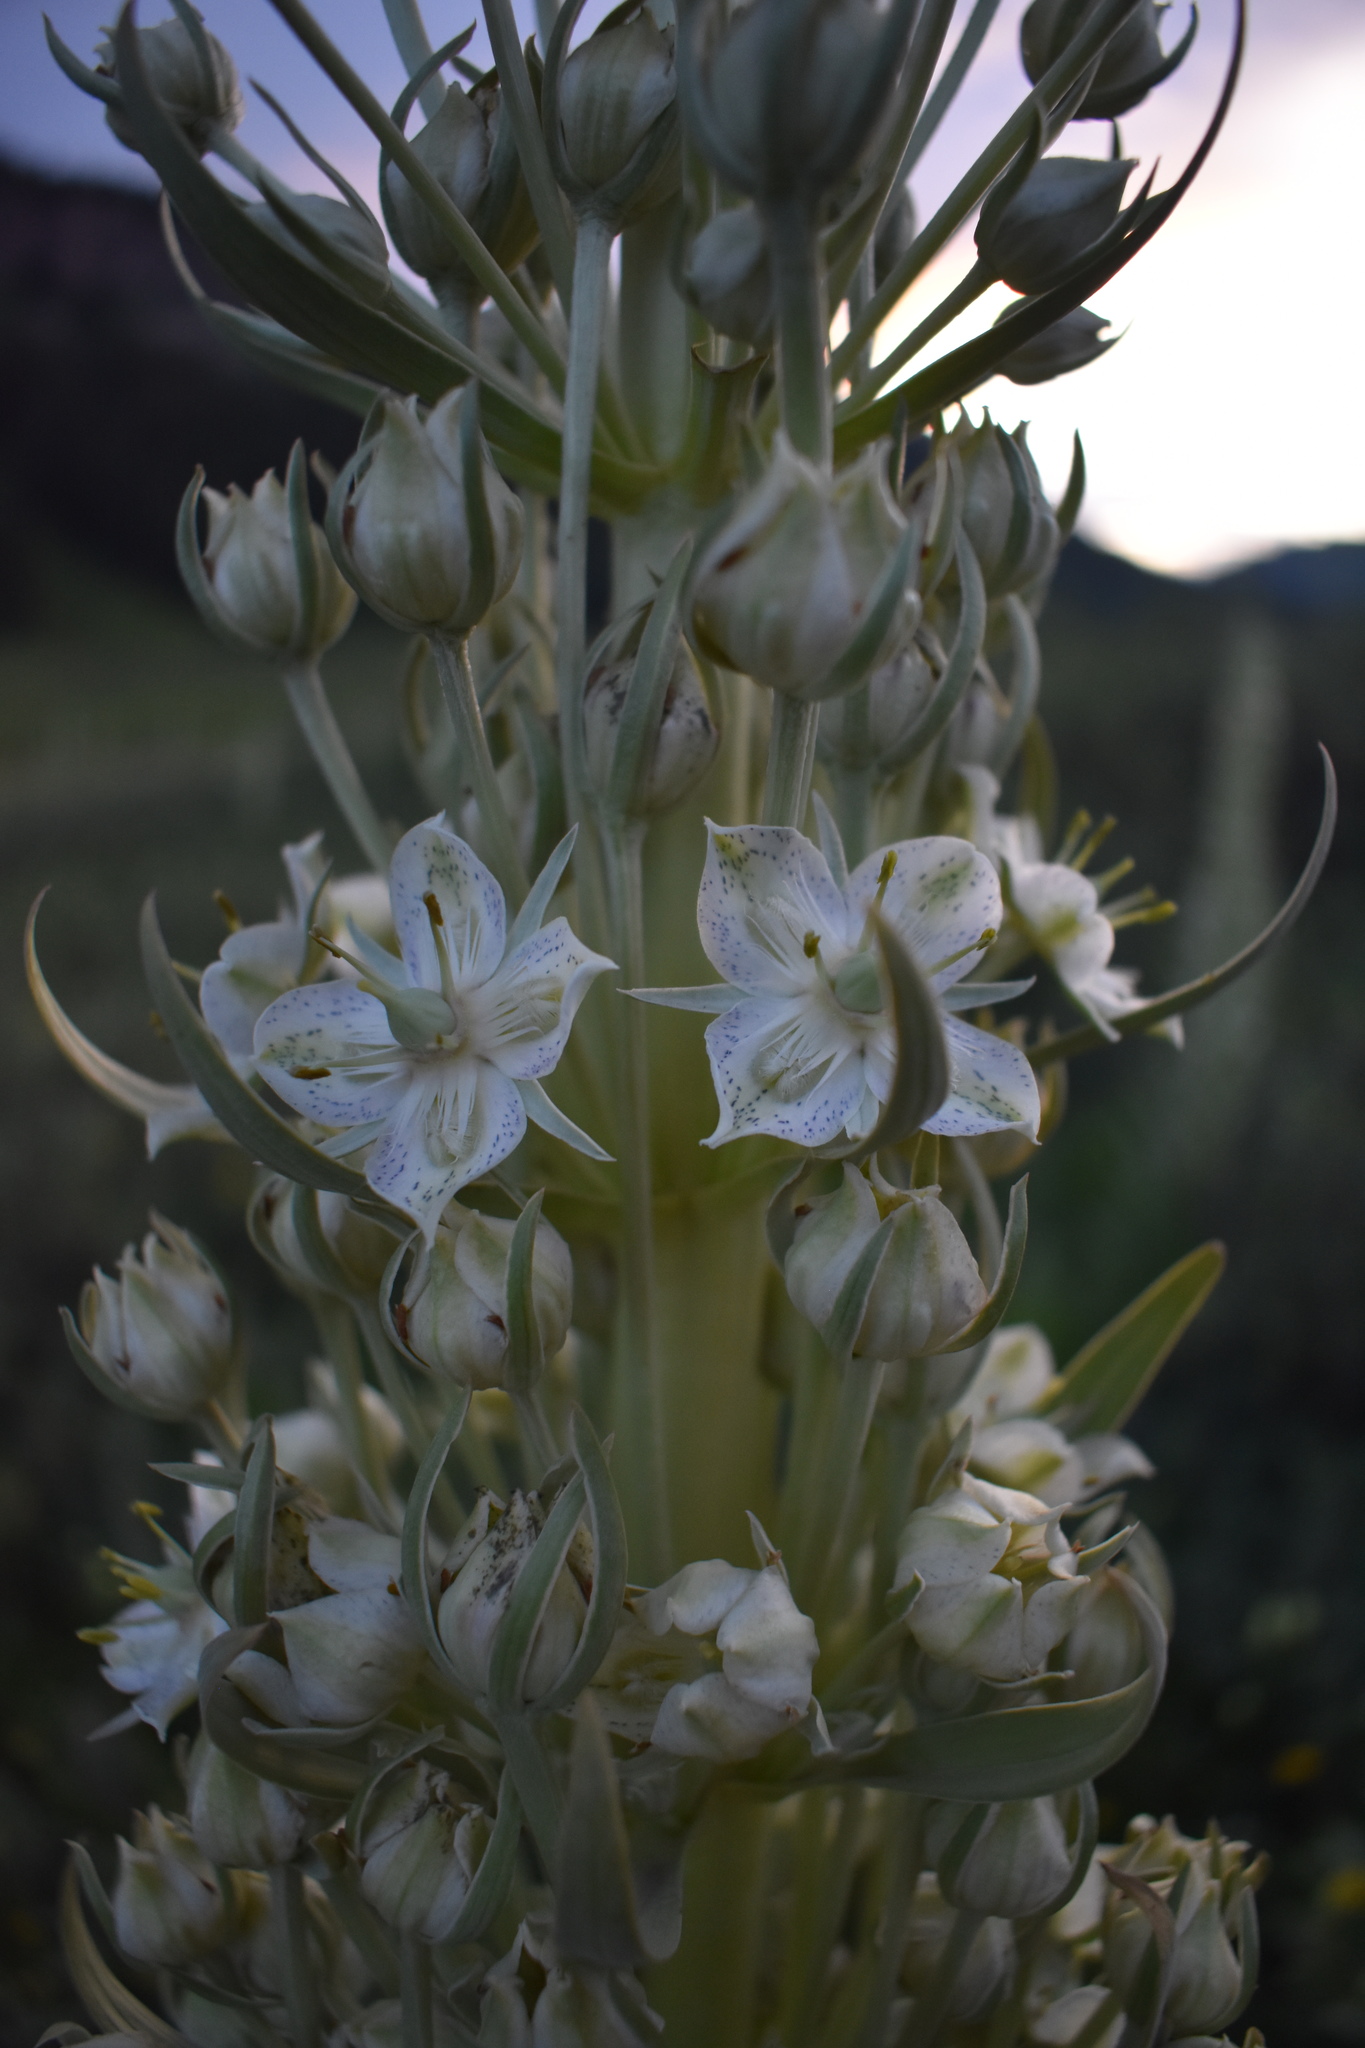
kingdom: Plantae
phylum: Tracheophyta
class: Magnoliopsida
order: Gentianales
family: Gentianaceae
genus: Frasera
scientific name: Frasera speciosa
